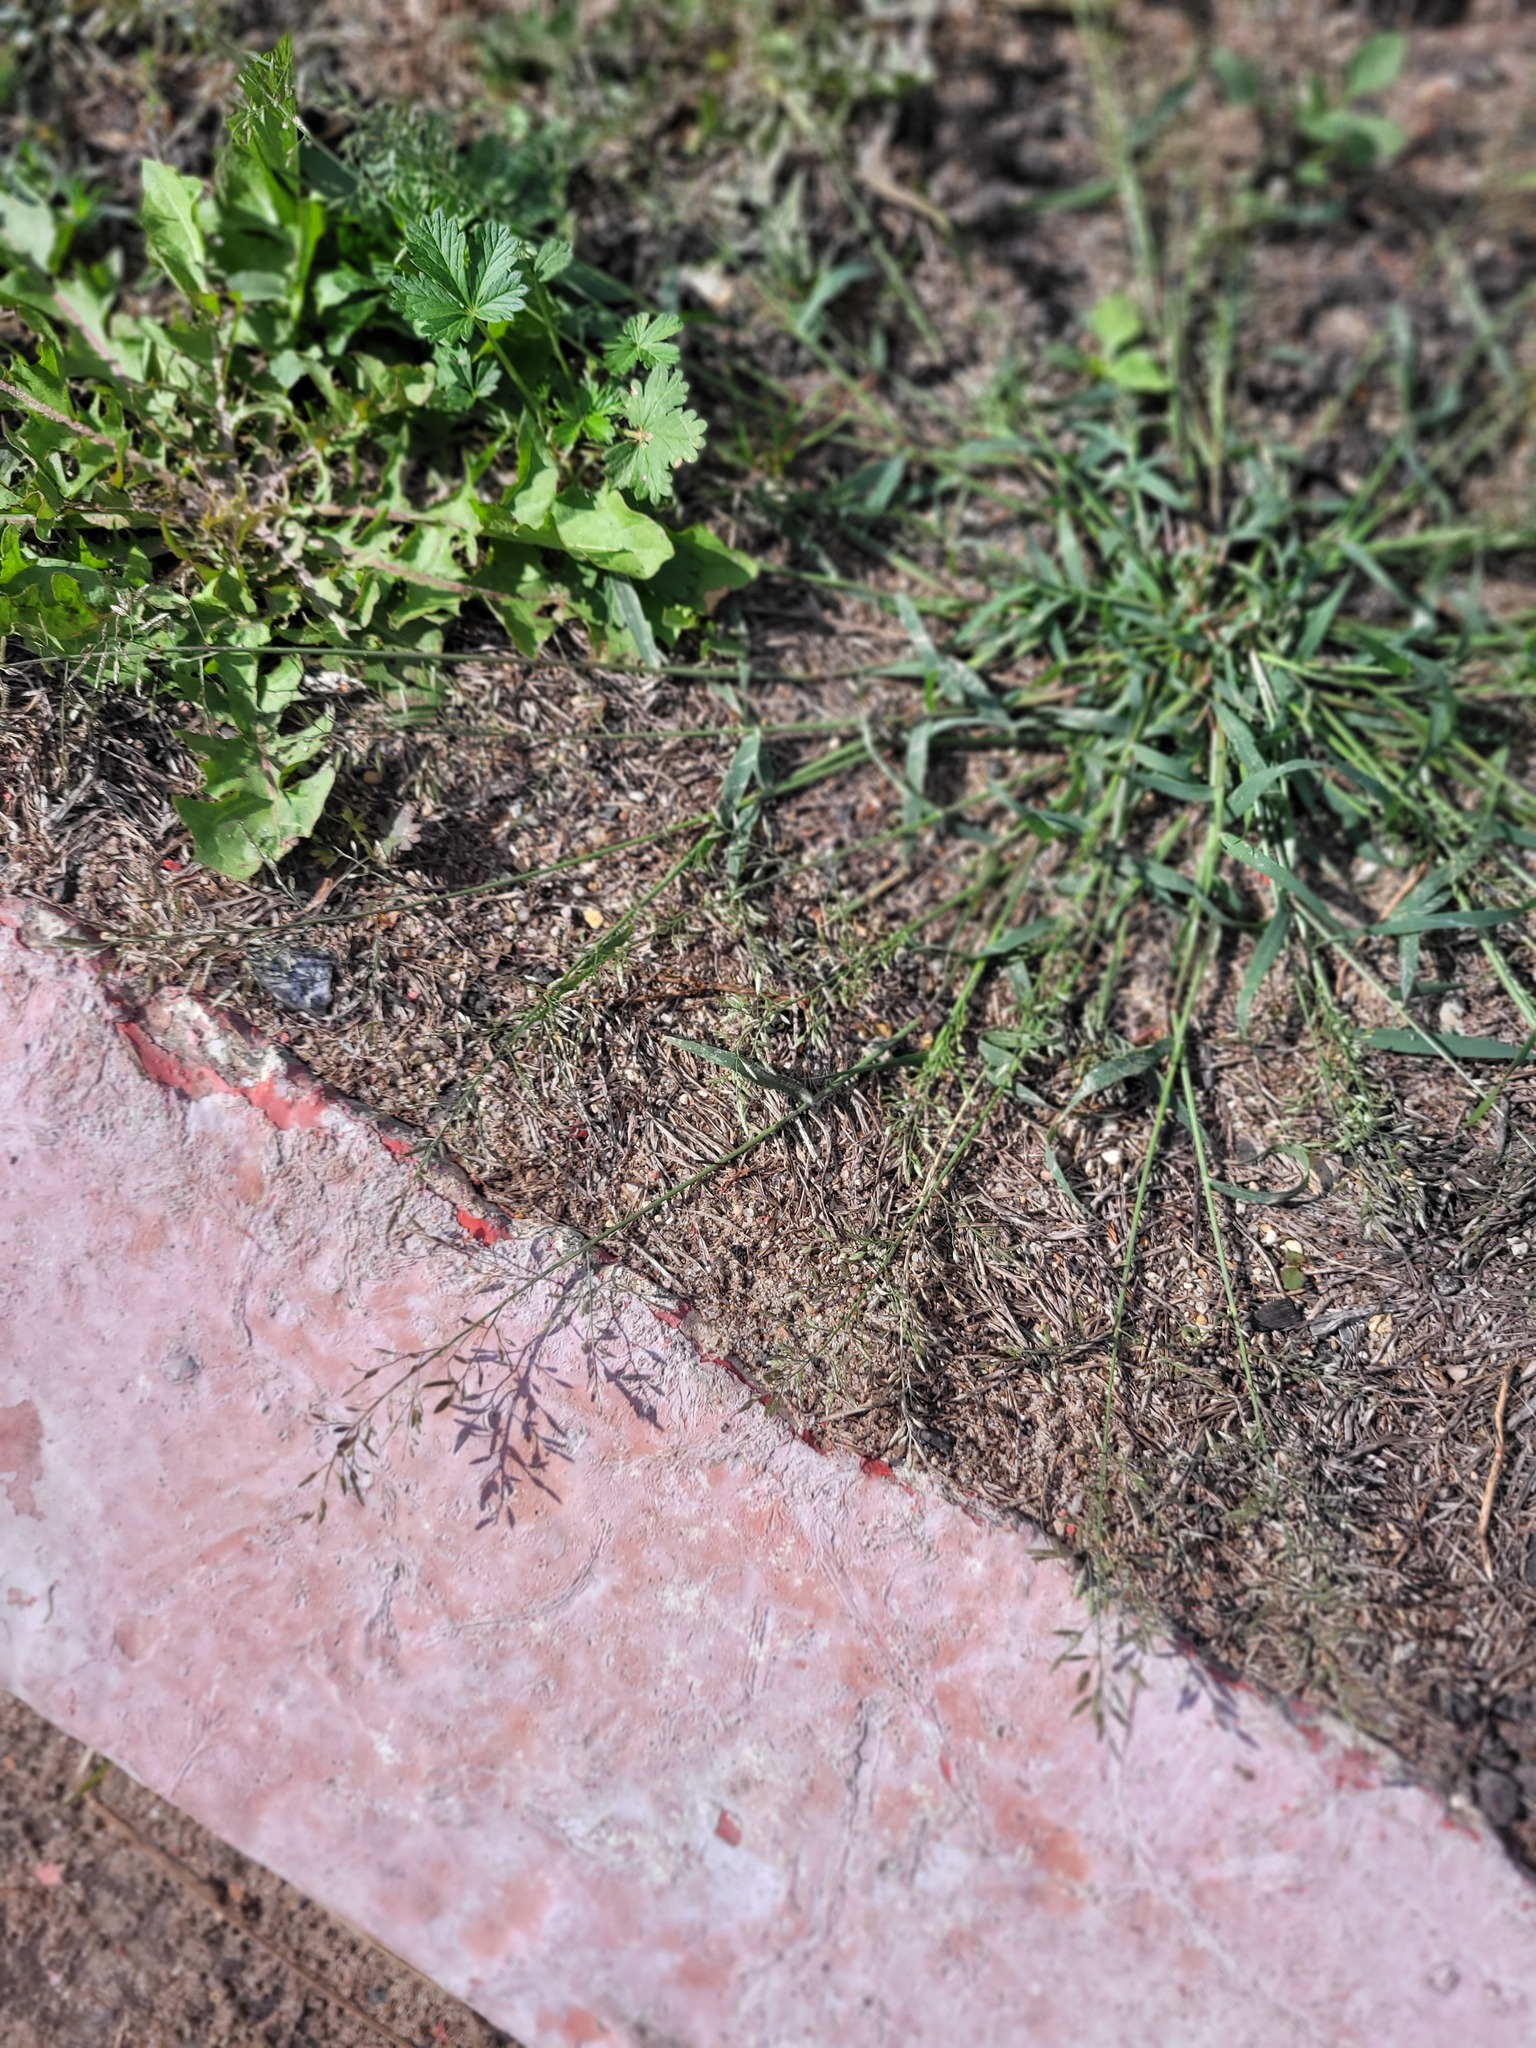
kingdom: Plantae
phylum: Tracheophyta
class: Liliopsida
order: Poales
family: Poaceae
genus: Eragrostis
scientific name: Eragrostis minor
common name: Small love-grass
